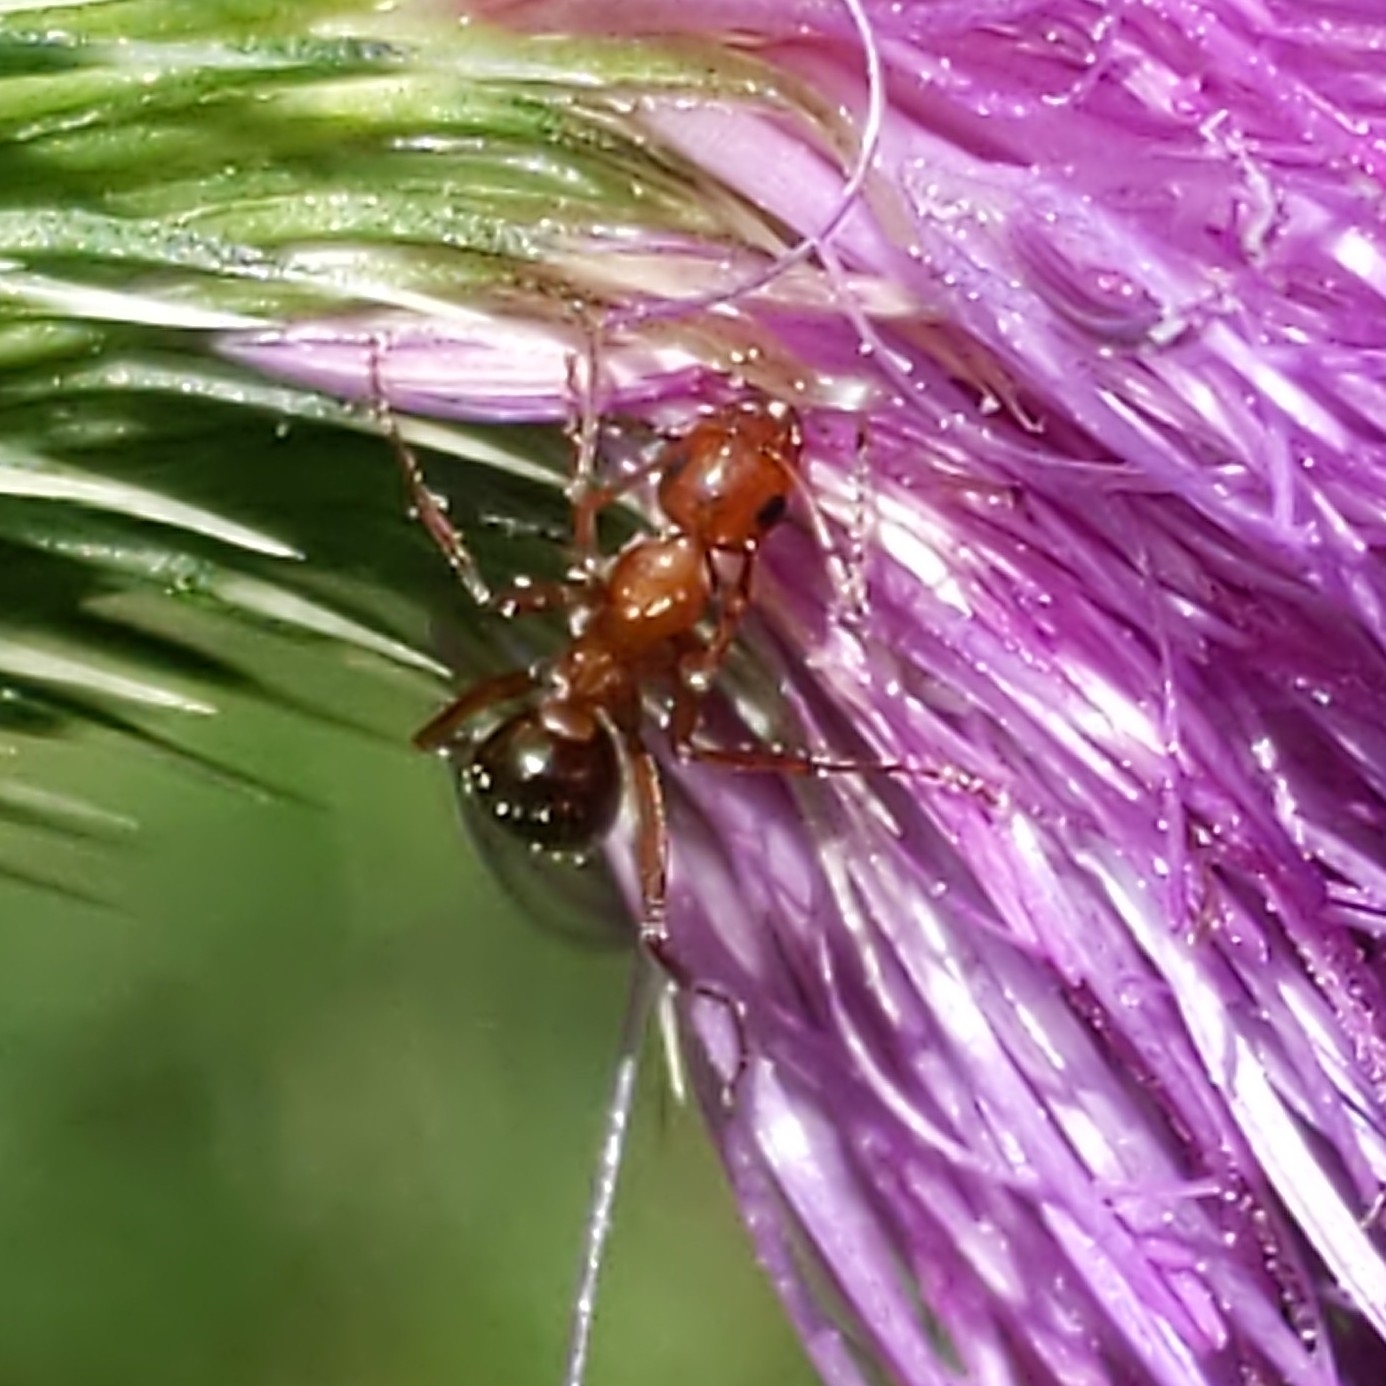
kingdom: Animalia
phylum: Arthropoda
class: Insecta
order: Hymenoptera
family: Formicidae
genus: Formica
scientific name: Formica
